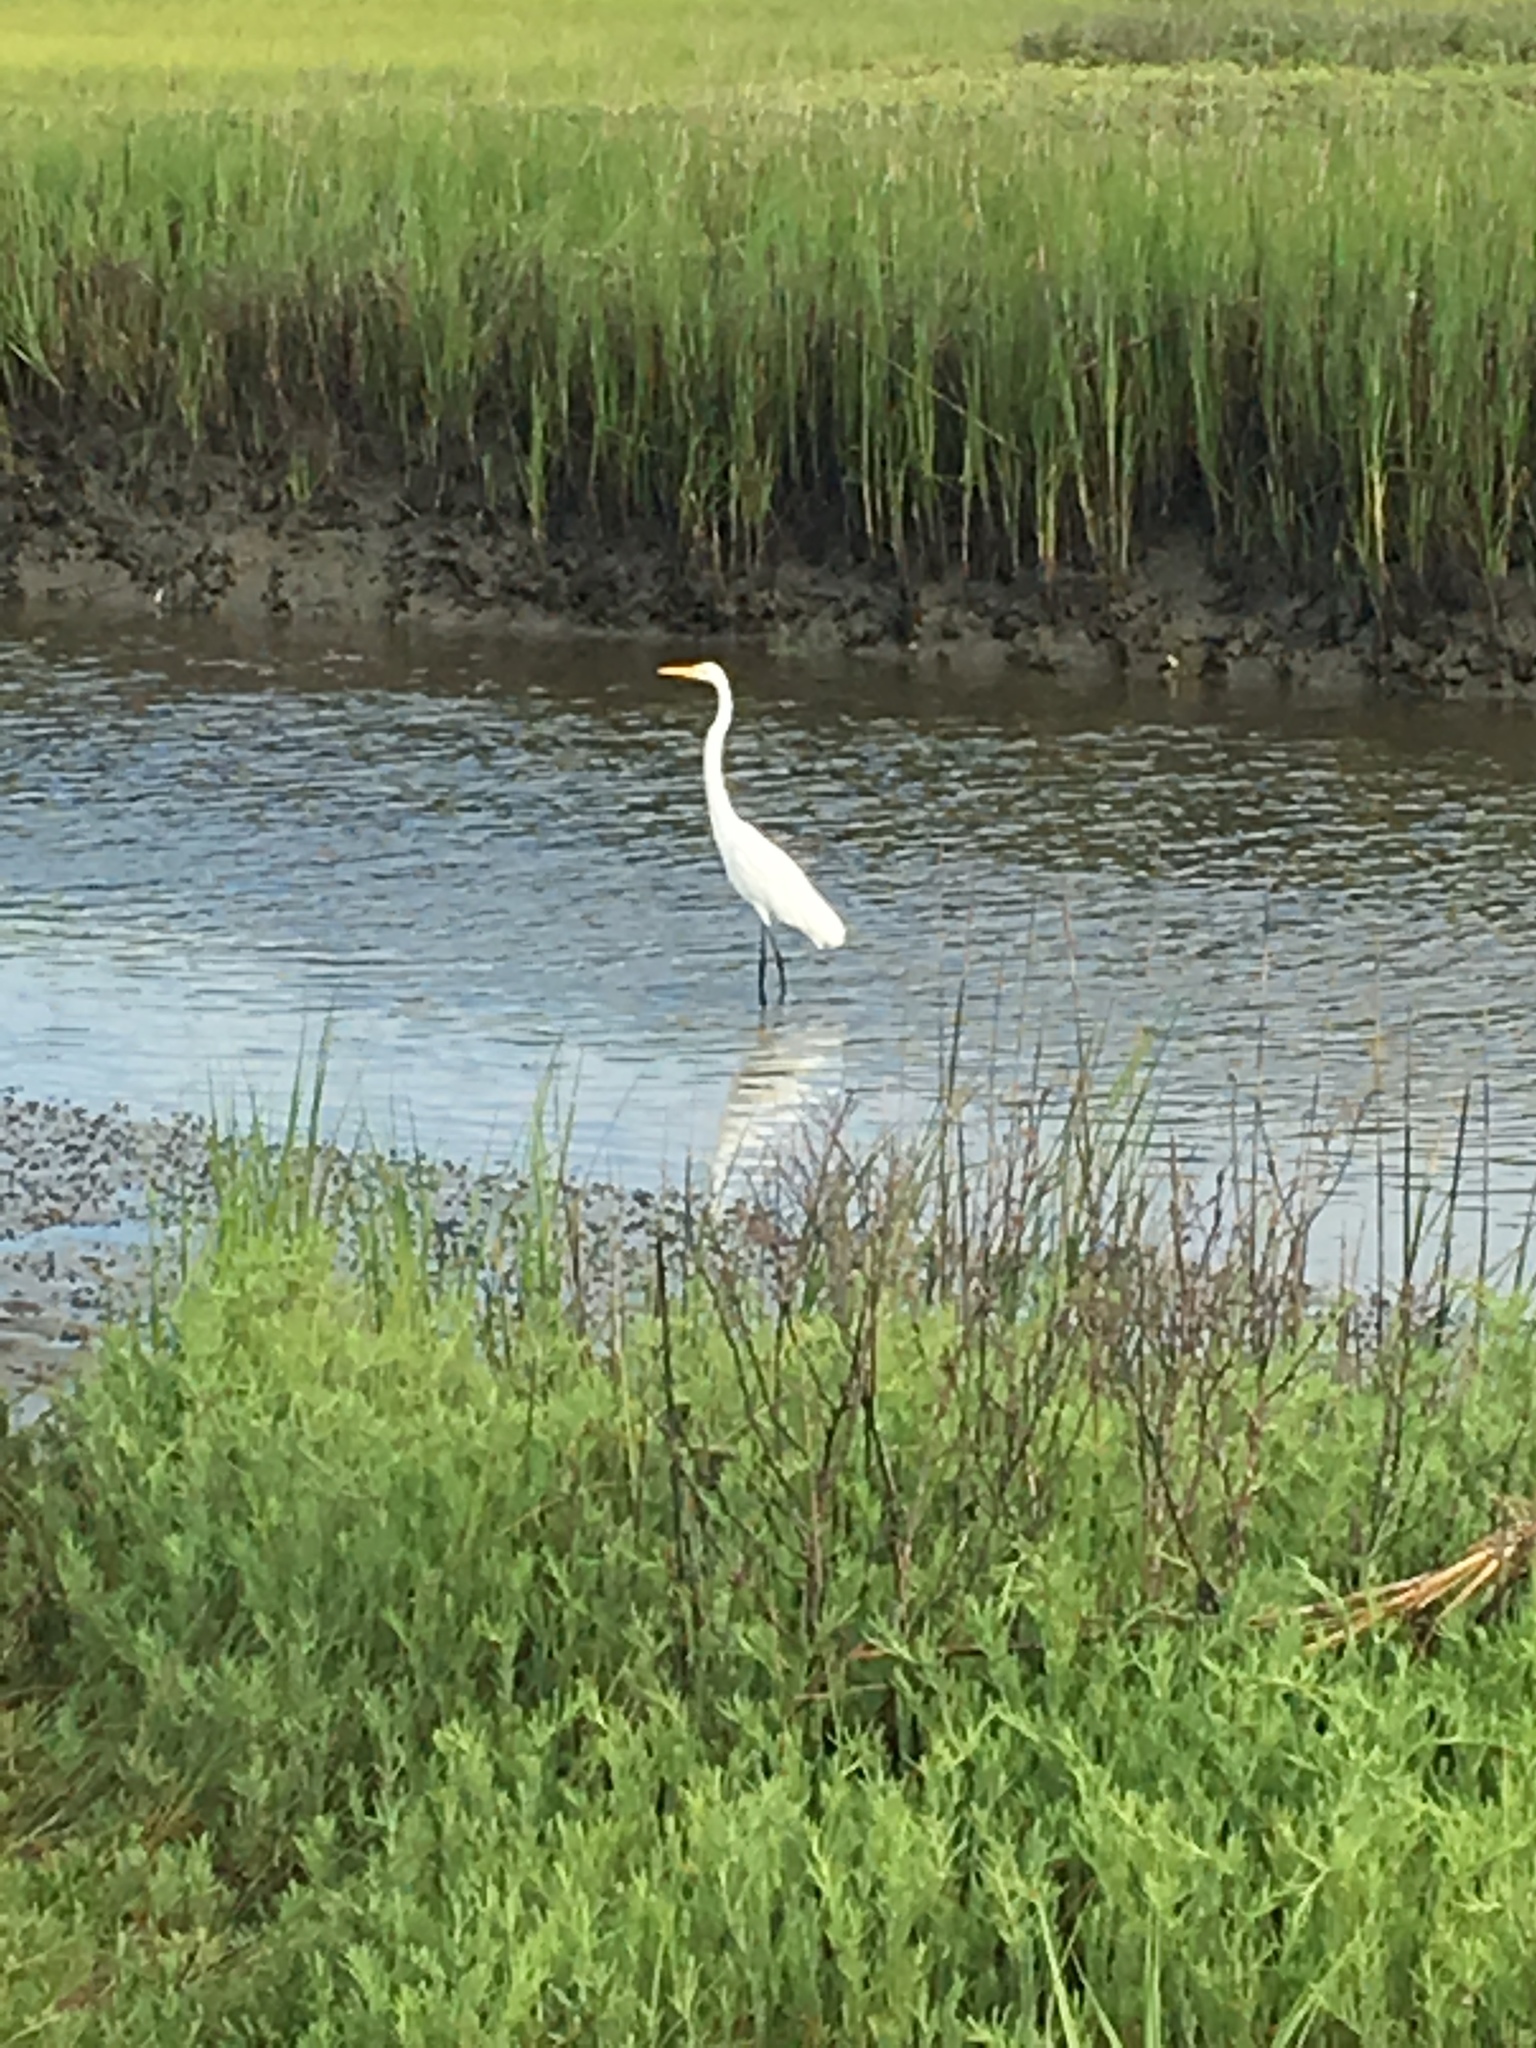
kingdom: Animalia
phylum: Chordata
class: Aves
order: Pelecaniformes
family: Ardeidae
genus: Ardea
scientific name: Ardea alba
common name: Great egret
